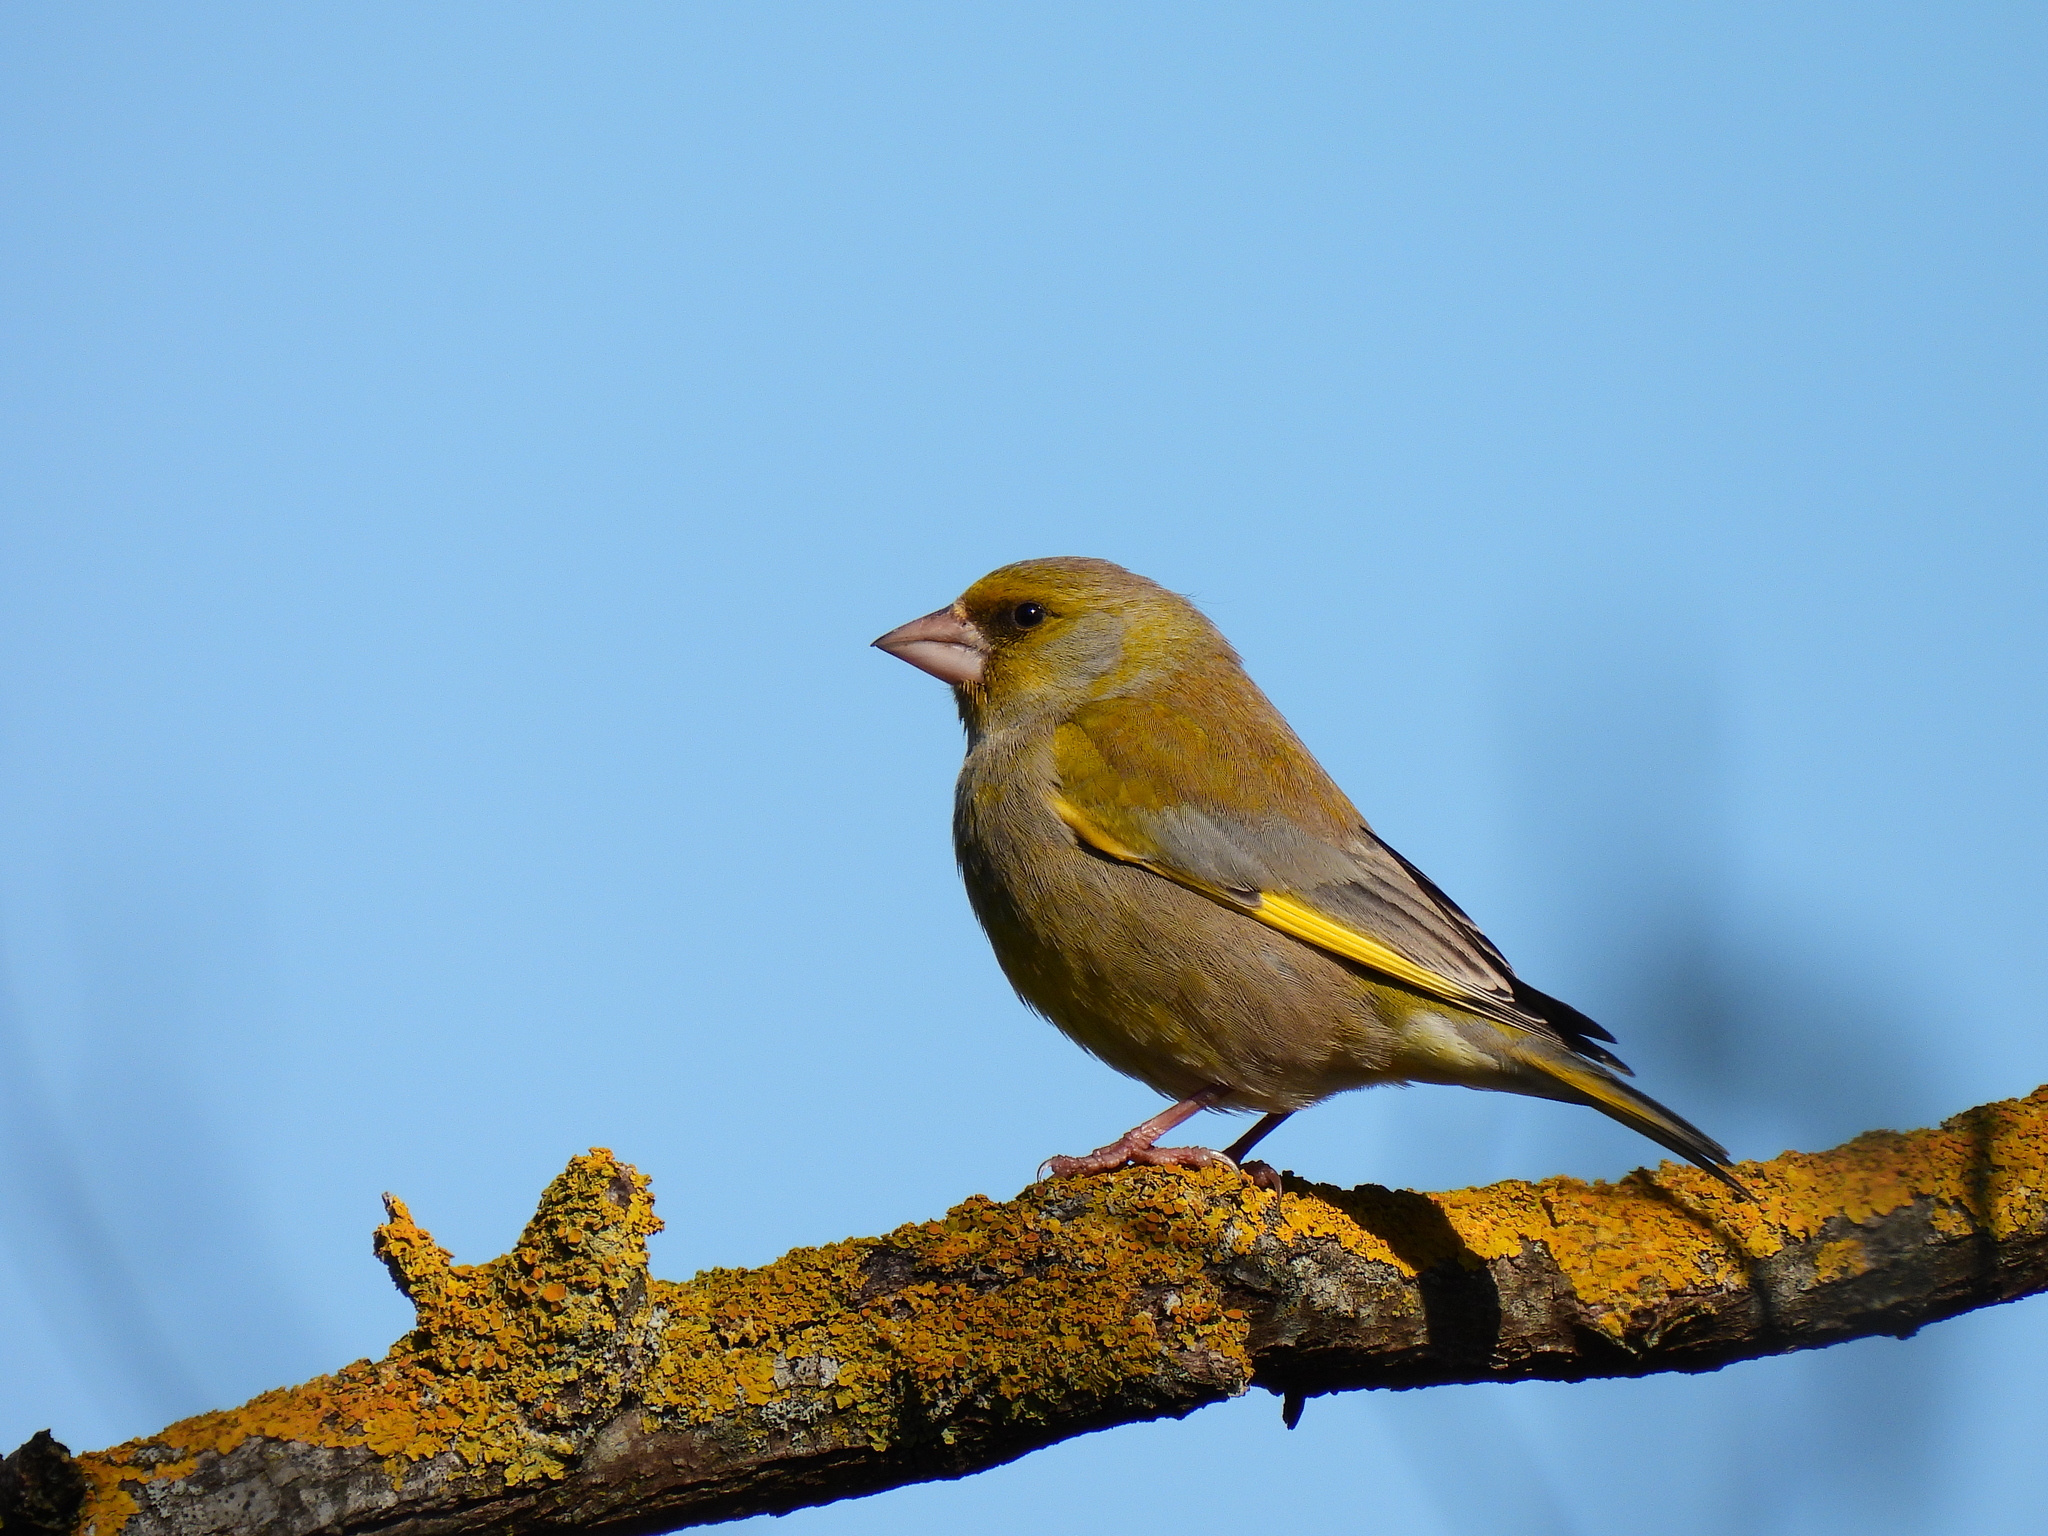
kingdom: Plantae
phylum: Tracheophyta
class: Liliopsida
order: Poales
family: Poaceae
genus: Chloris
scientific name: Chloris chloris
